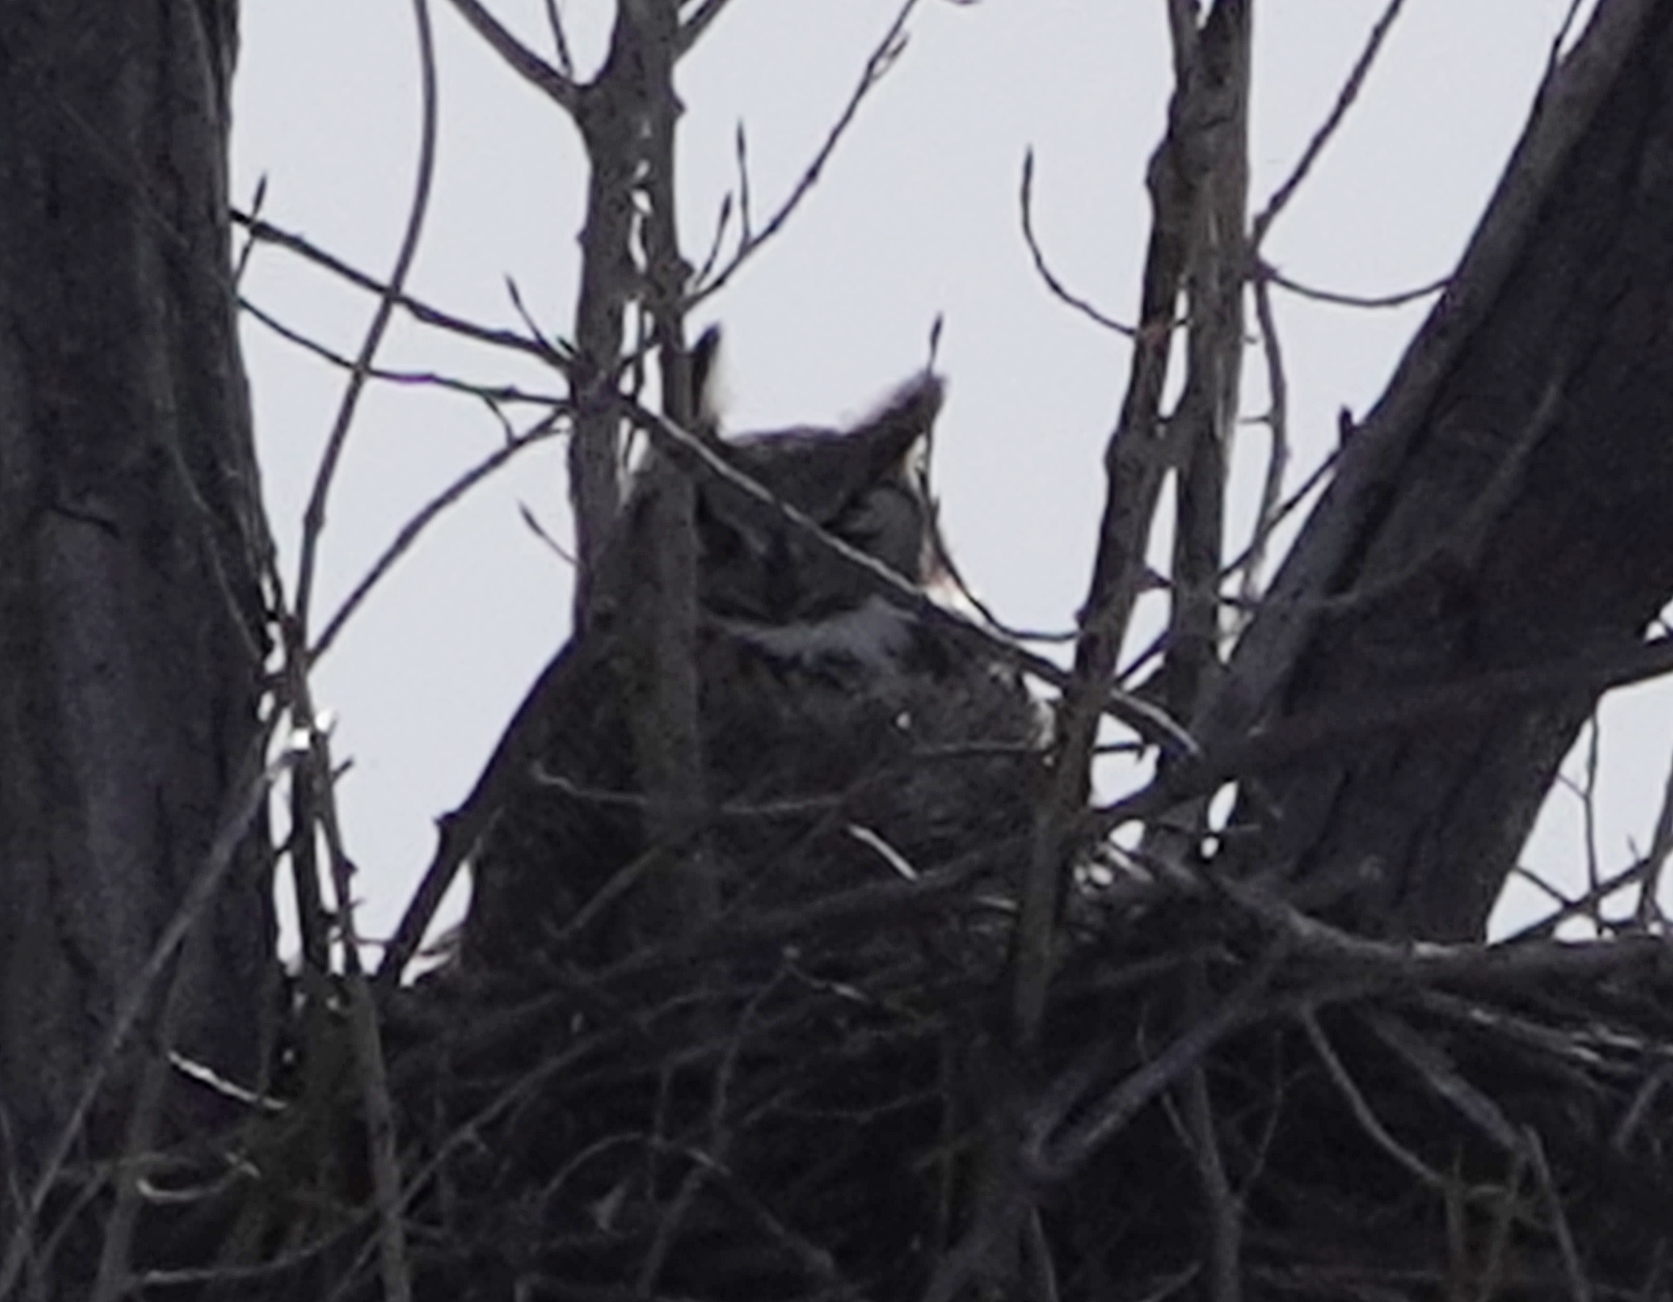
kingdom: Animalia
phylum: Chordata
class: Aves
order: Strigiformes
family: Strigidae
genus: Bubo
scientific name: Bubo virginianus
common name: Great horned owl
